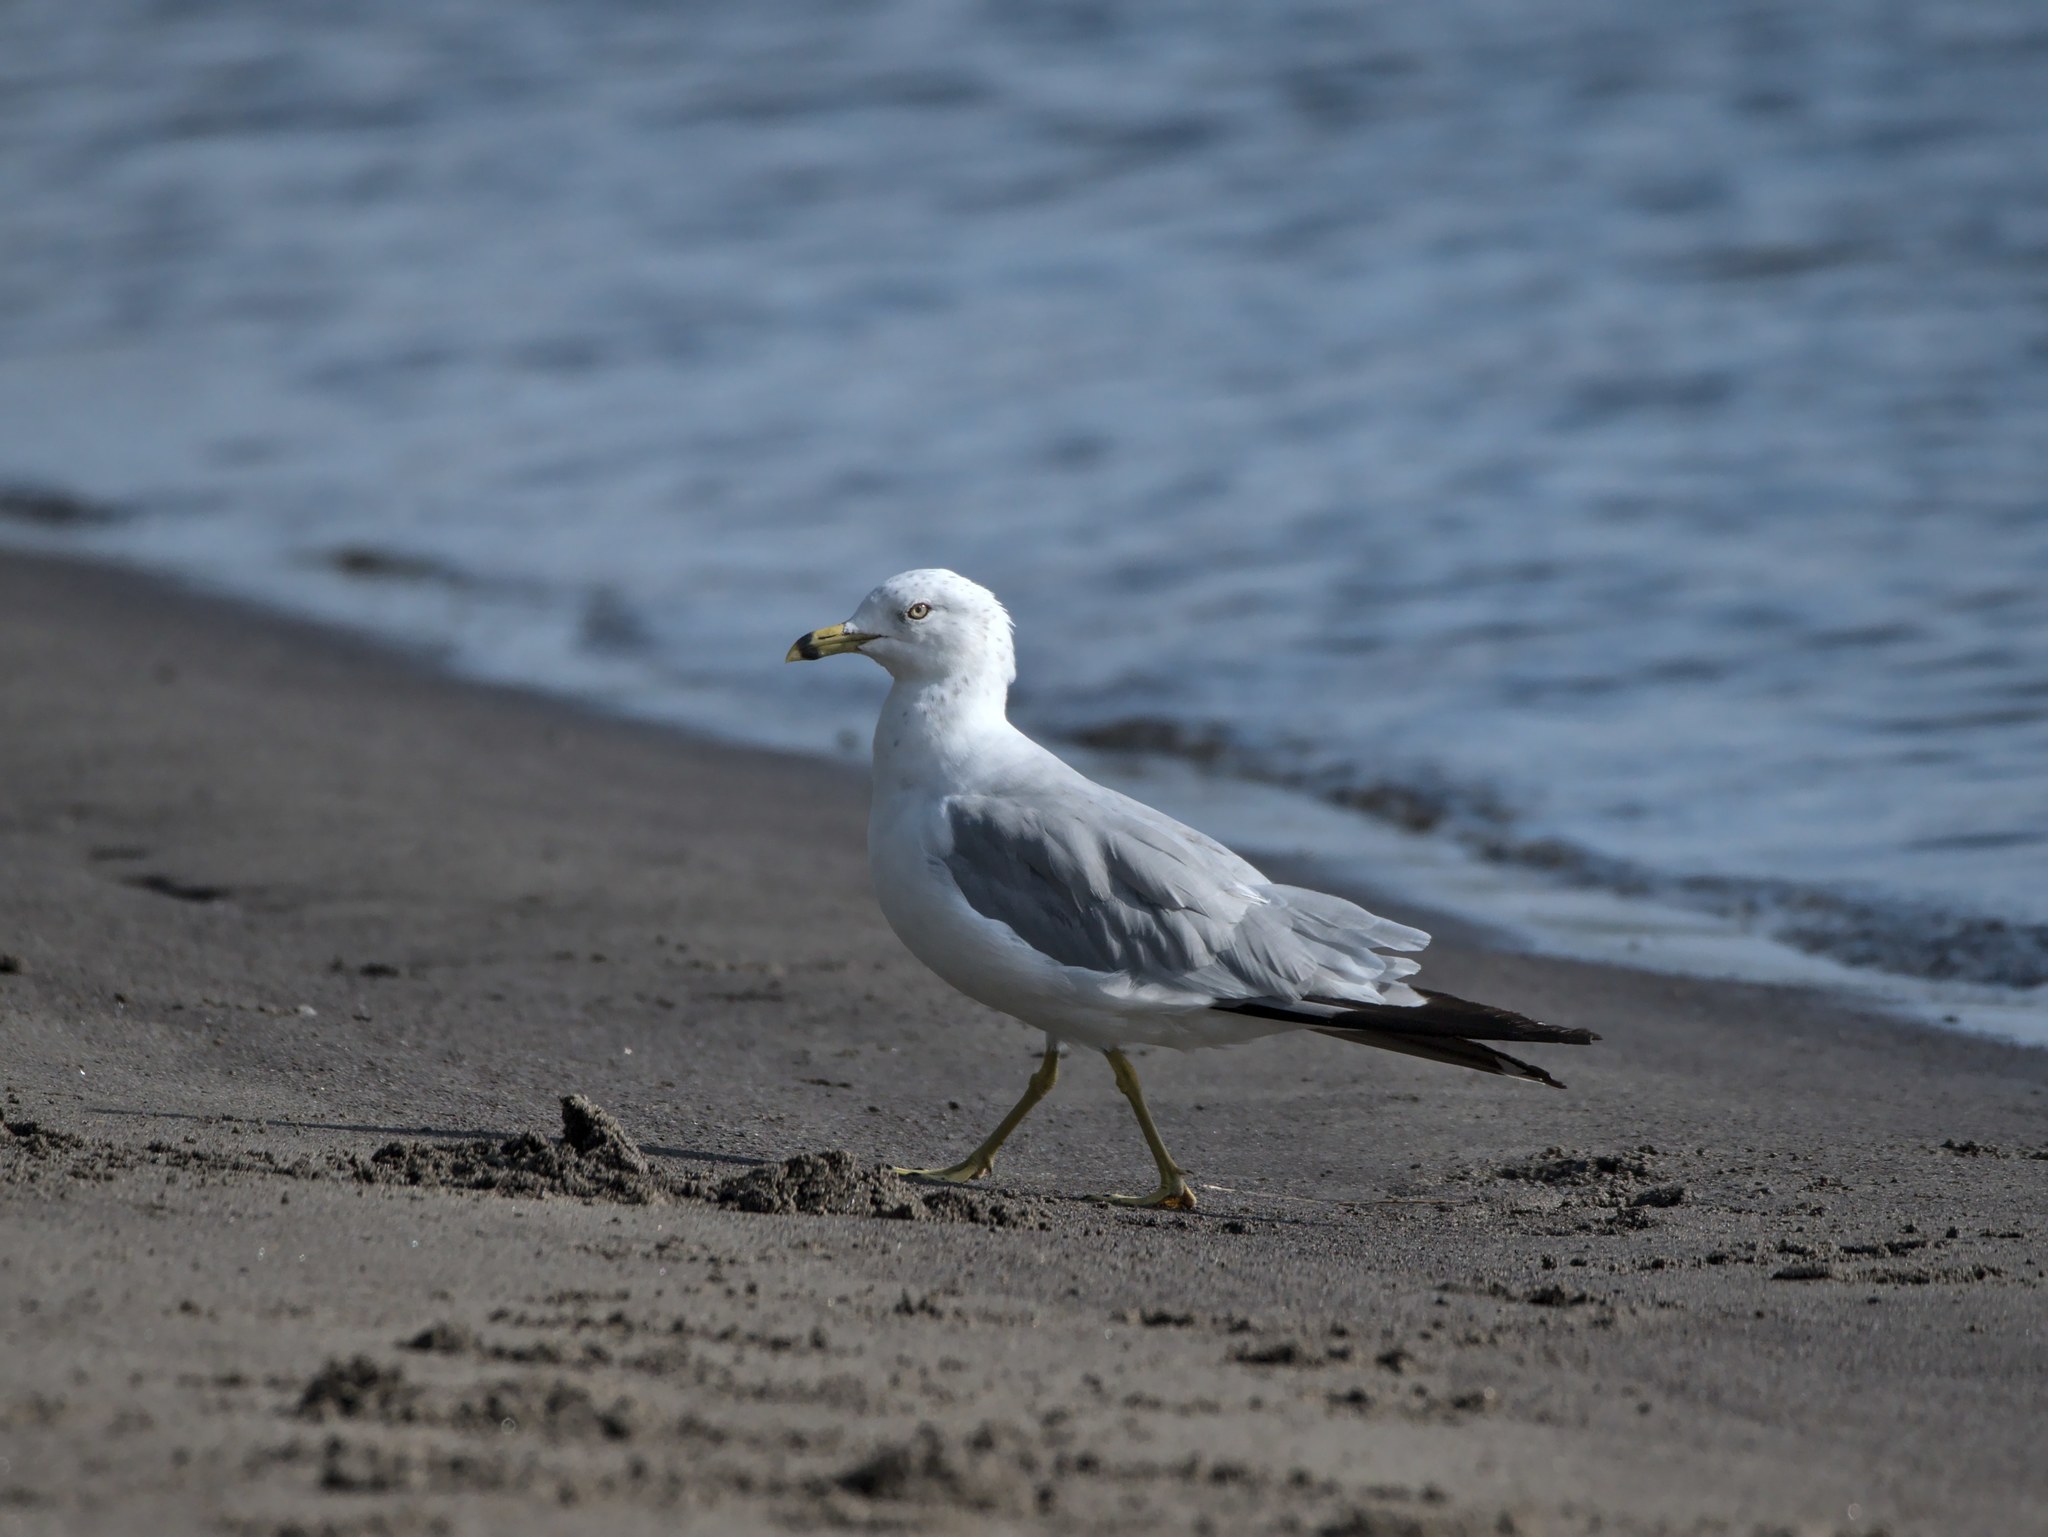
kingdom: Animalia
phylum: Chordata
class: Aves
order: Charadriiformes
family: Laridae
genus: Larus
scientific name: Larus delawarensis
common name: Ring-billed gull
